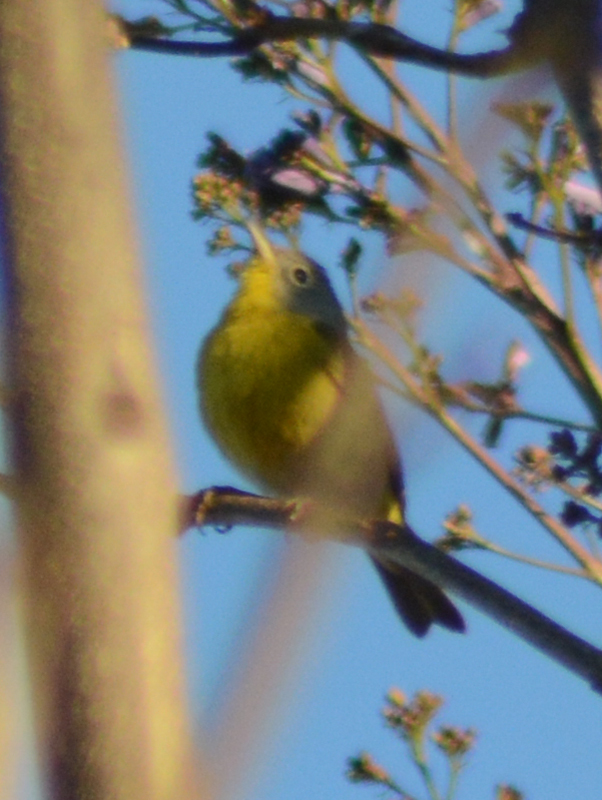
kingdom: Animalia
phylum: Chordata
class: Aves
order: Passeriformes
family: Parulidae
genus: Leiothlypis
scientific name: Leiothlypis ruficapilla
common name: Nashville warbler
